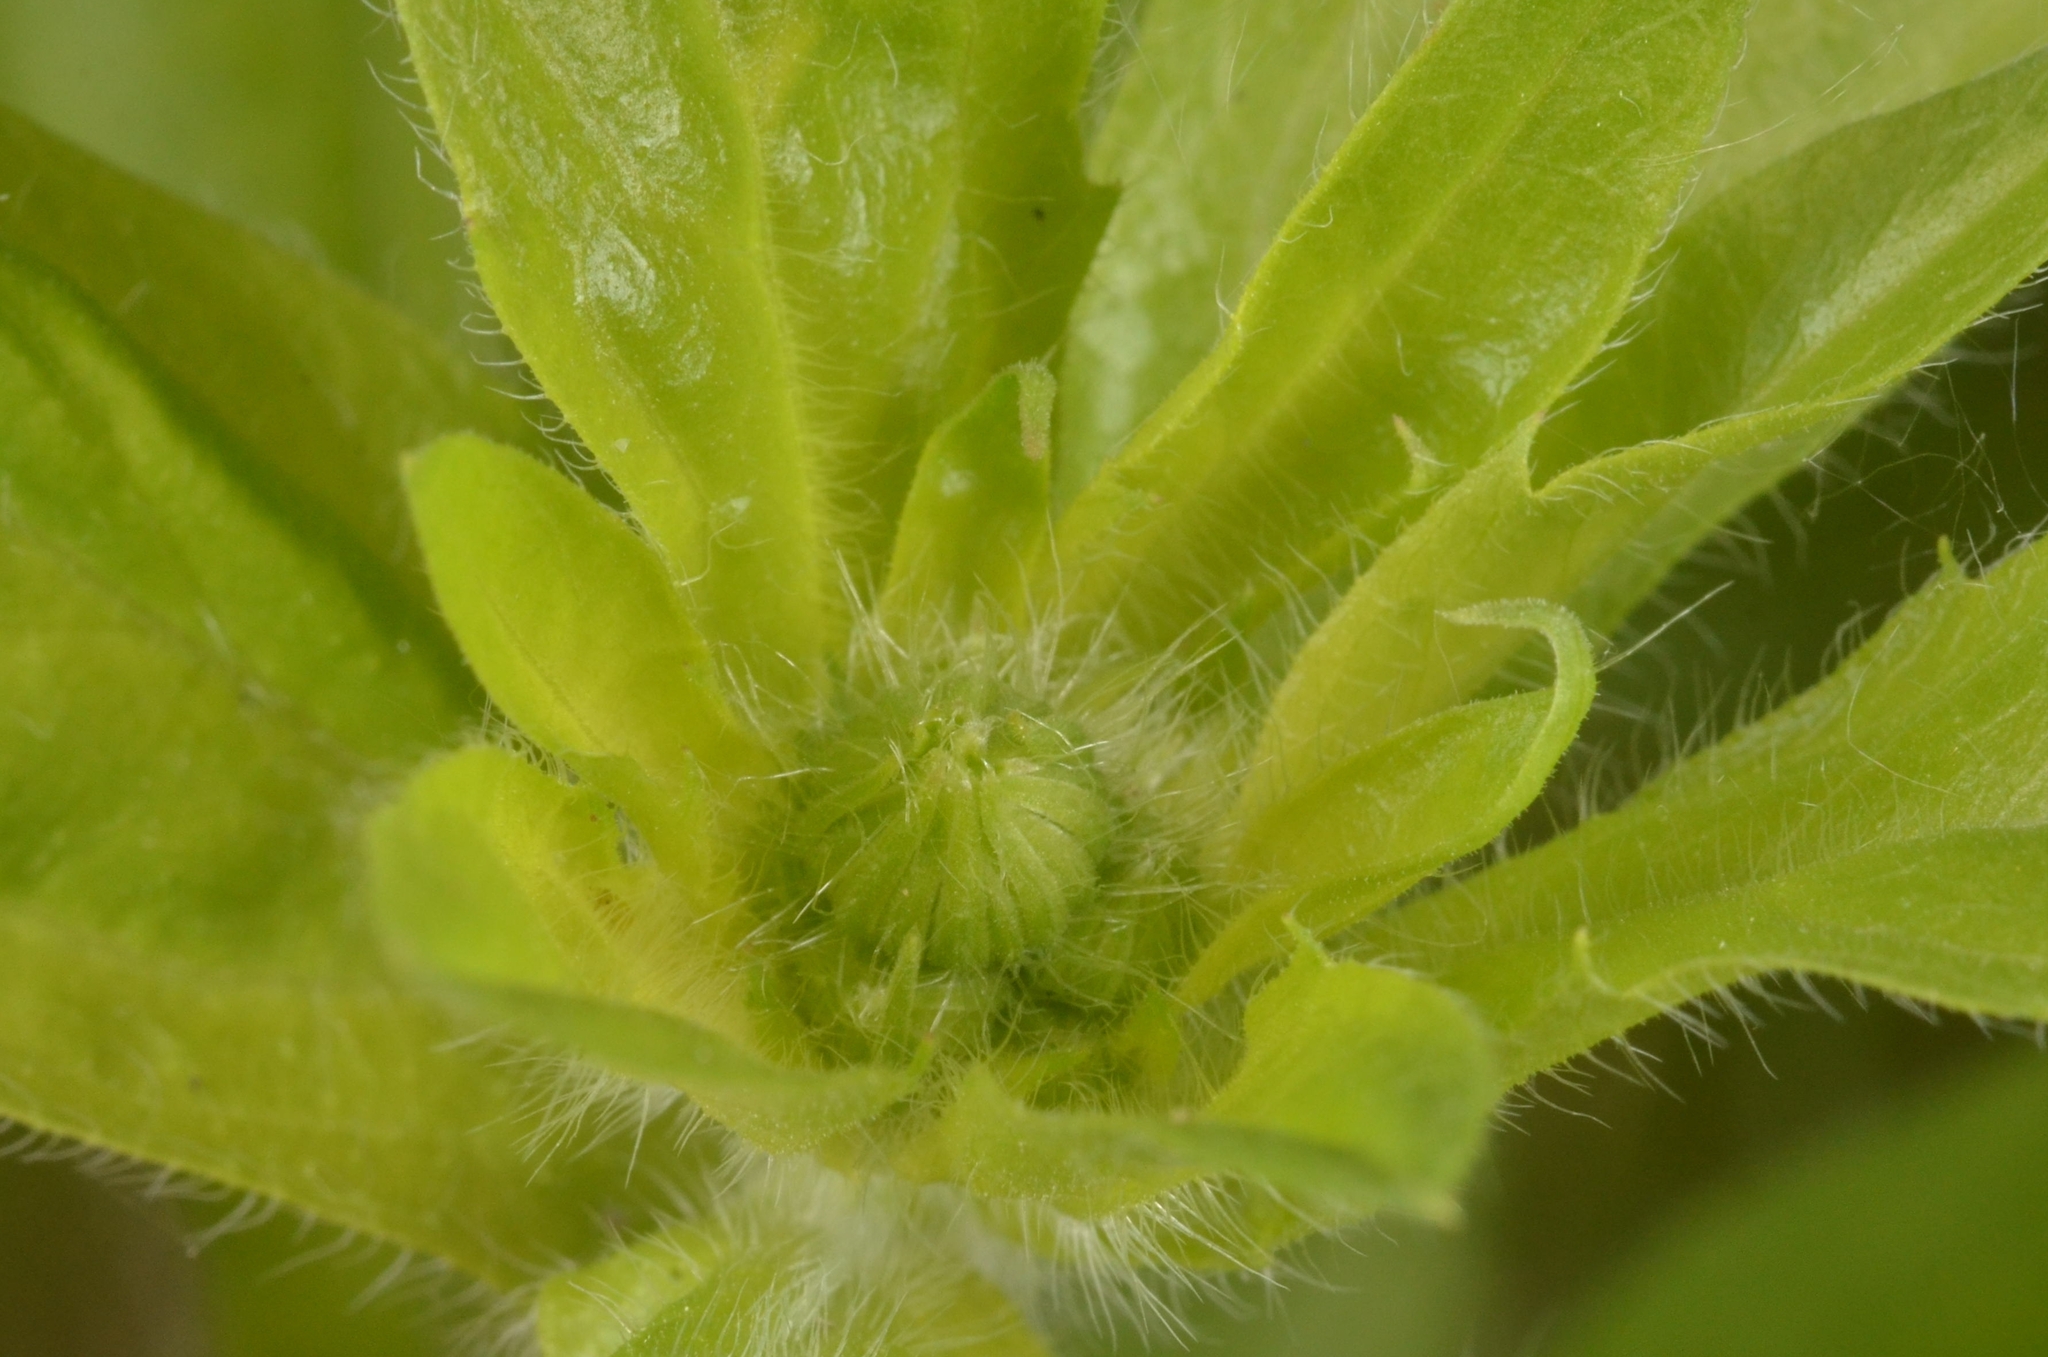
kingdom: Plantae
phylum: Tracheophyta
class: Magnoliopsida
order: Asterales
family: Asteraceae
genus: Erigeron
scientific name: Erigeron annuus
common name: Tall fleabane
